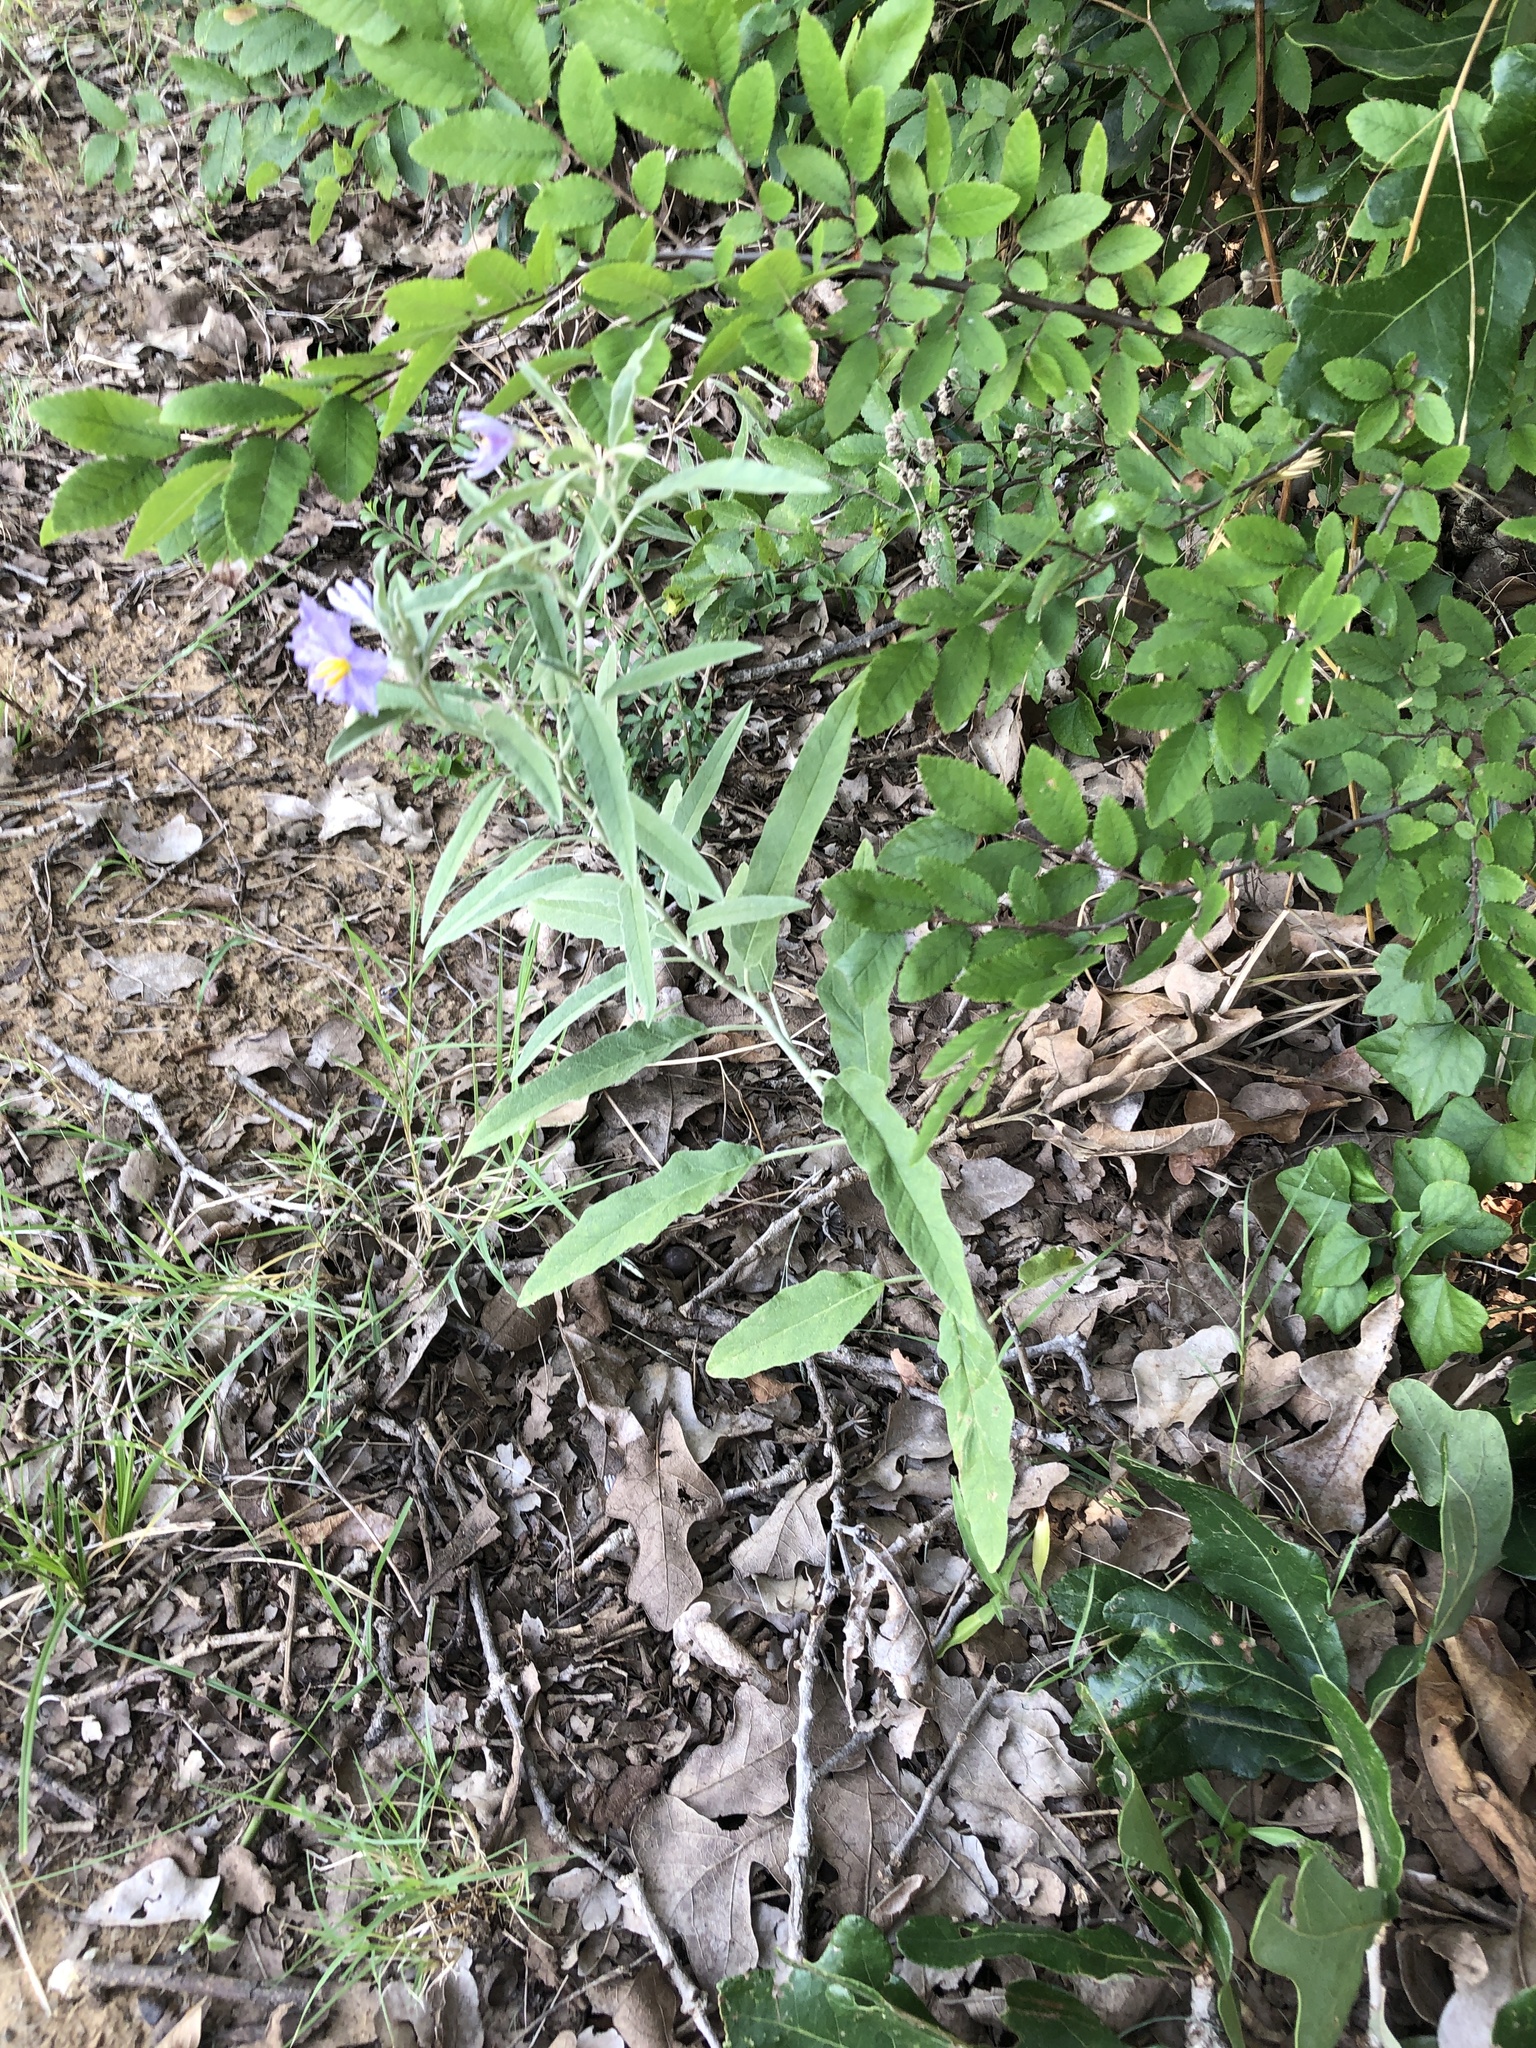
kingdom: Plantae
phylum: Tracheophyta
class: Magnoliopsida
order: Solanales
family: Solanaceae
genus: Solanum
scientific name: Solanum elaeagnifolium
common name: Silverleaf nightshade
